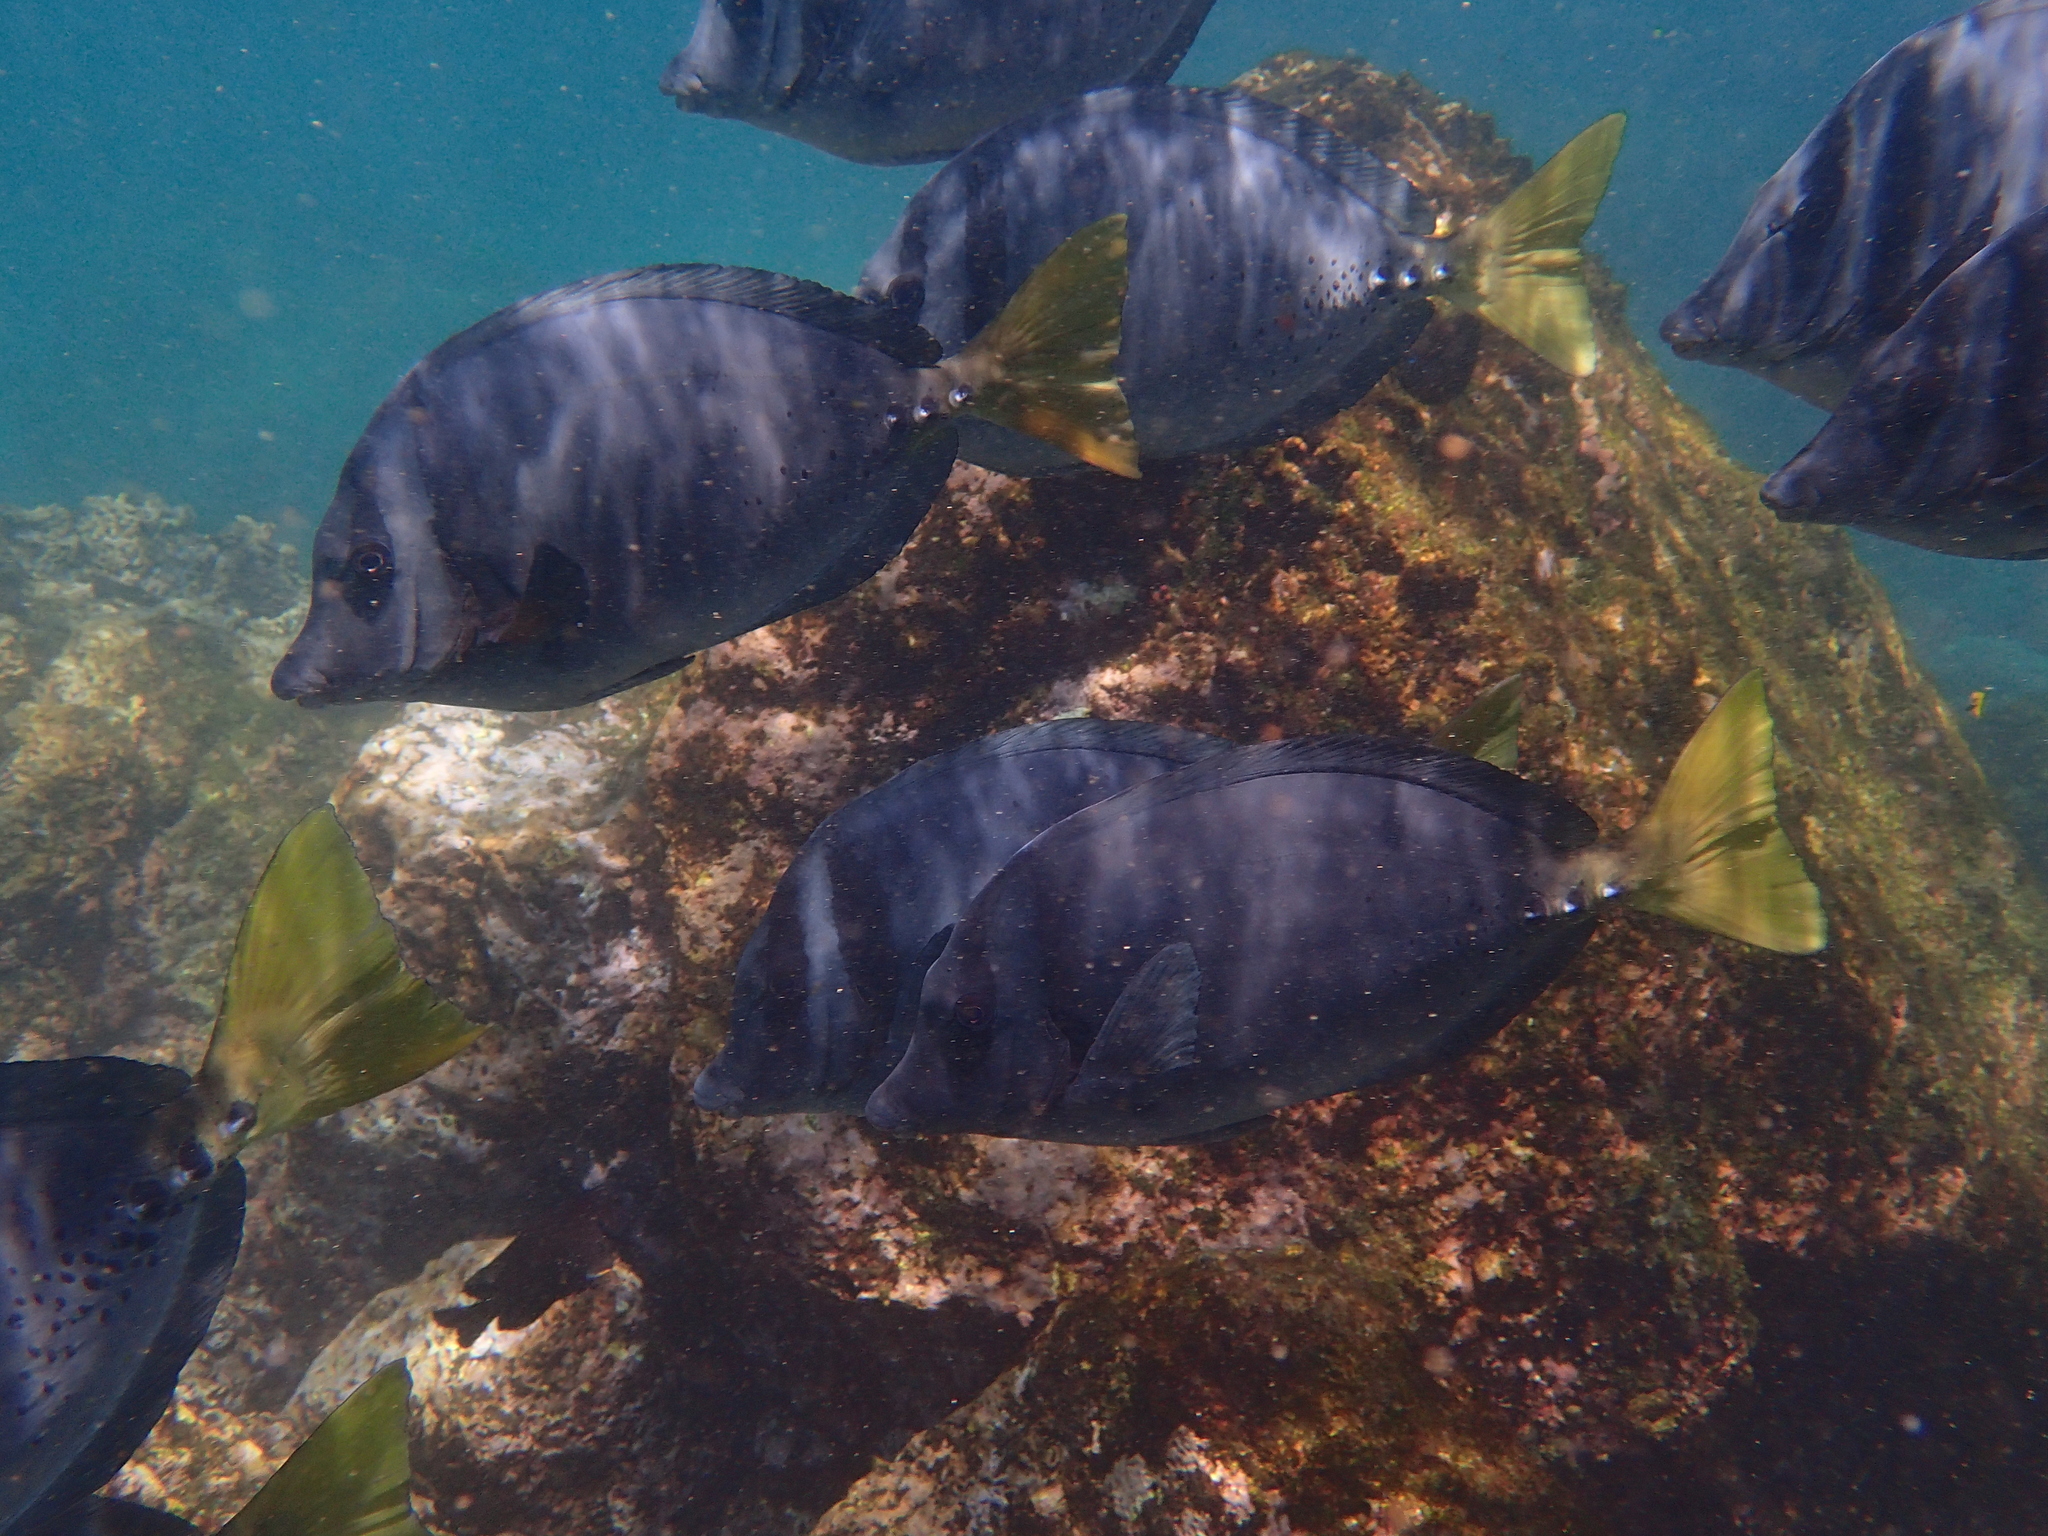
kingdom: Animalia
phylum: Chordata
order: Perciformes
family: Acanthuridae
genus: Prionurus
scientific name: Prionurus laticlavius
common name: Razor surgeonfish
